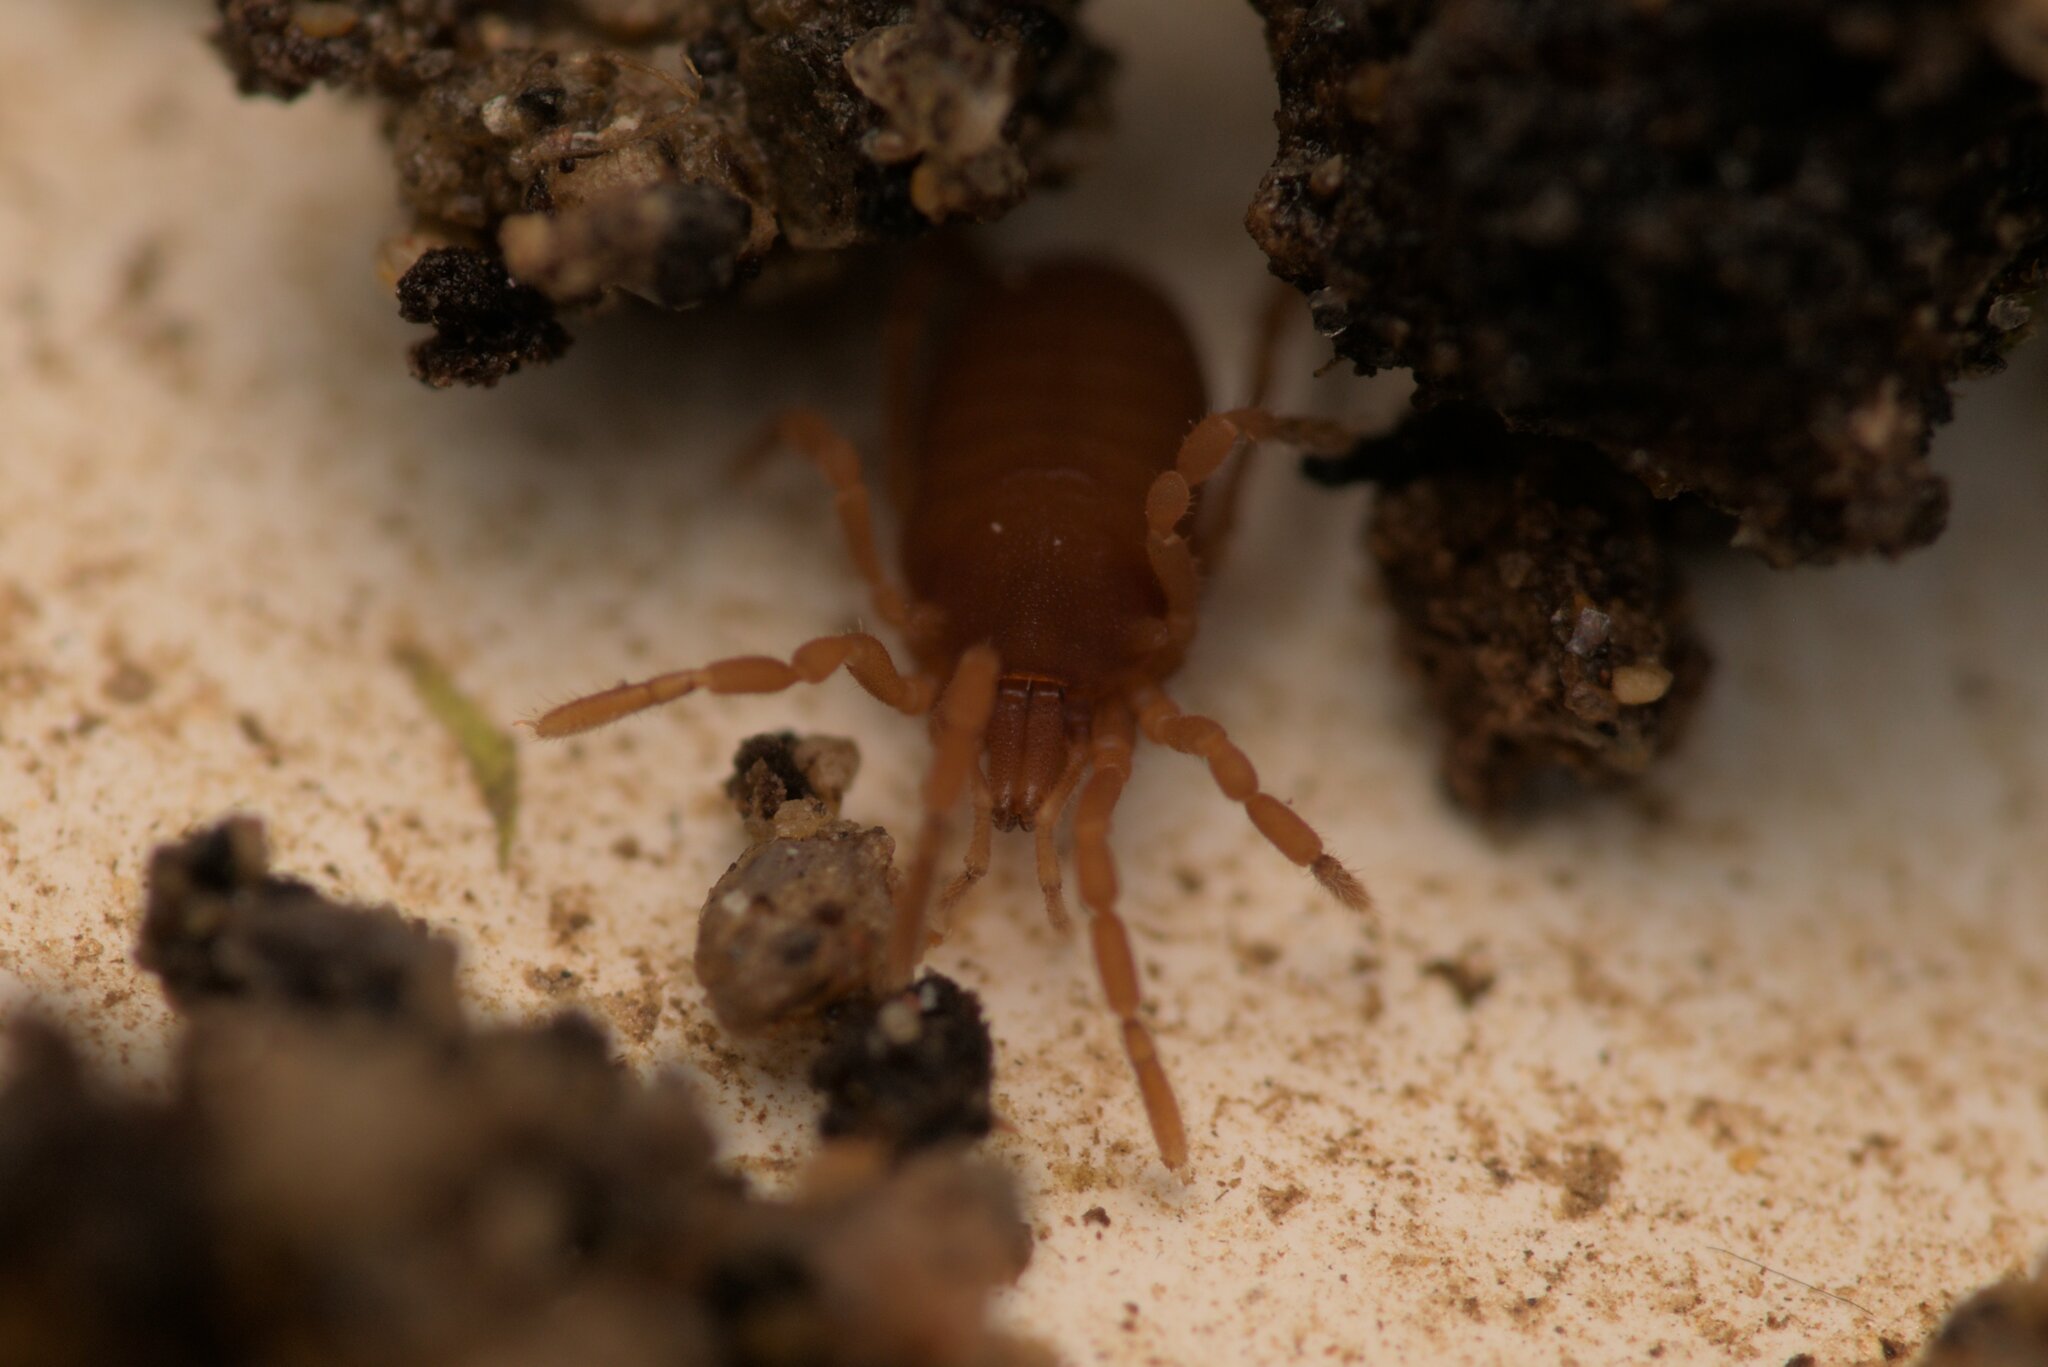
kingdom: Animalia
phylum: Arthropoda
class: Arachnida
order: Opiliones
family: Sironidae
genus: Siro
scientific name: Siro rubens
